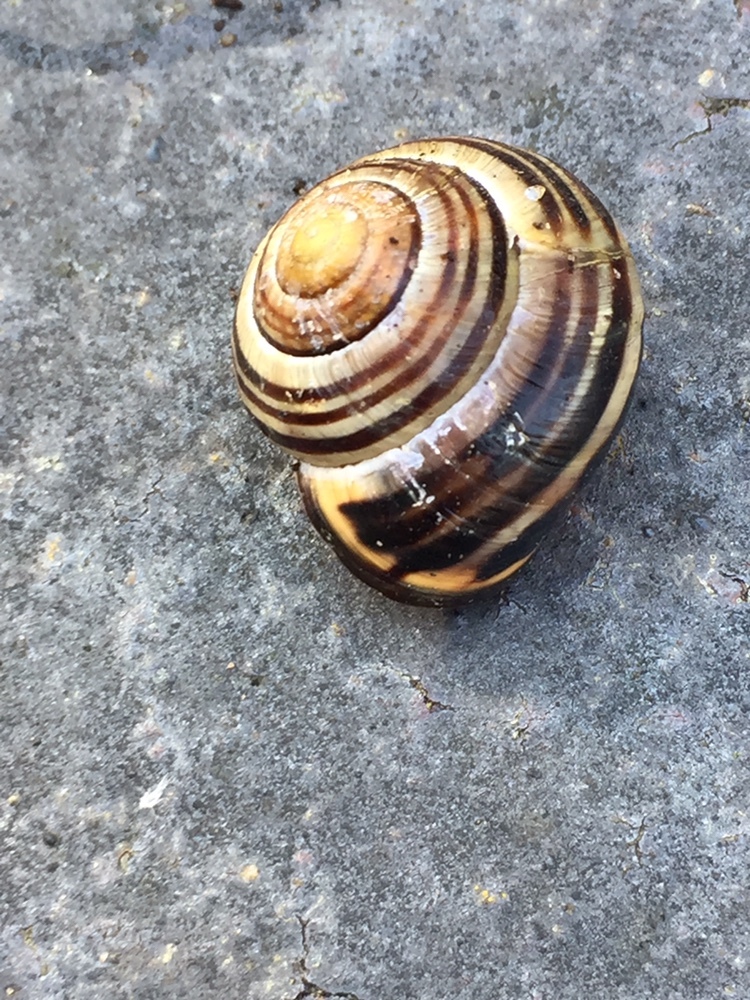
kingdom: Animalia
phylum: Mollusca
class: Gastropoda
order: Stylommatophora
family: Helicidae
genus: Cepaea
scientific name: Cepaea nemoralis
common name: Grovesnail
